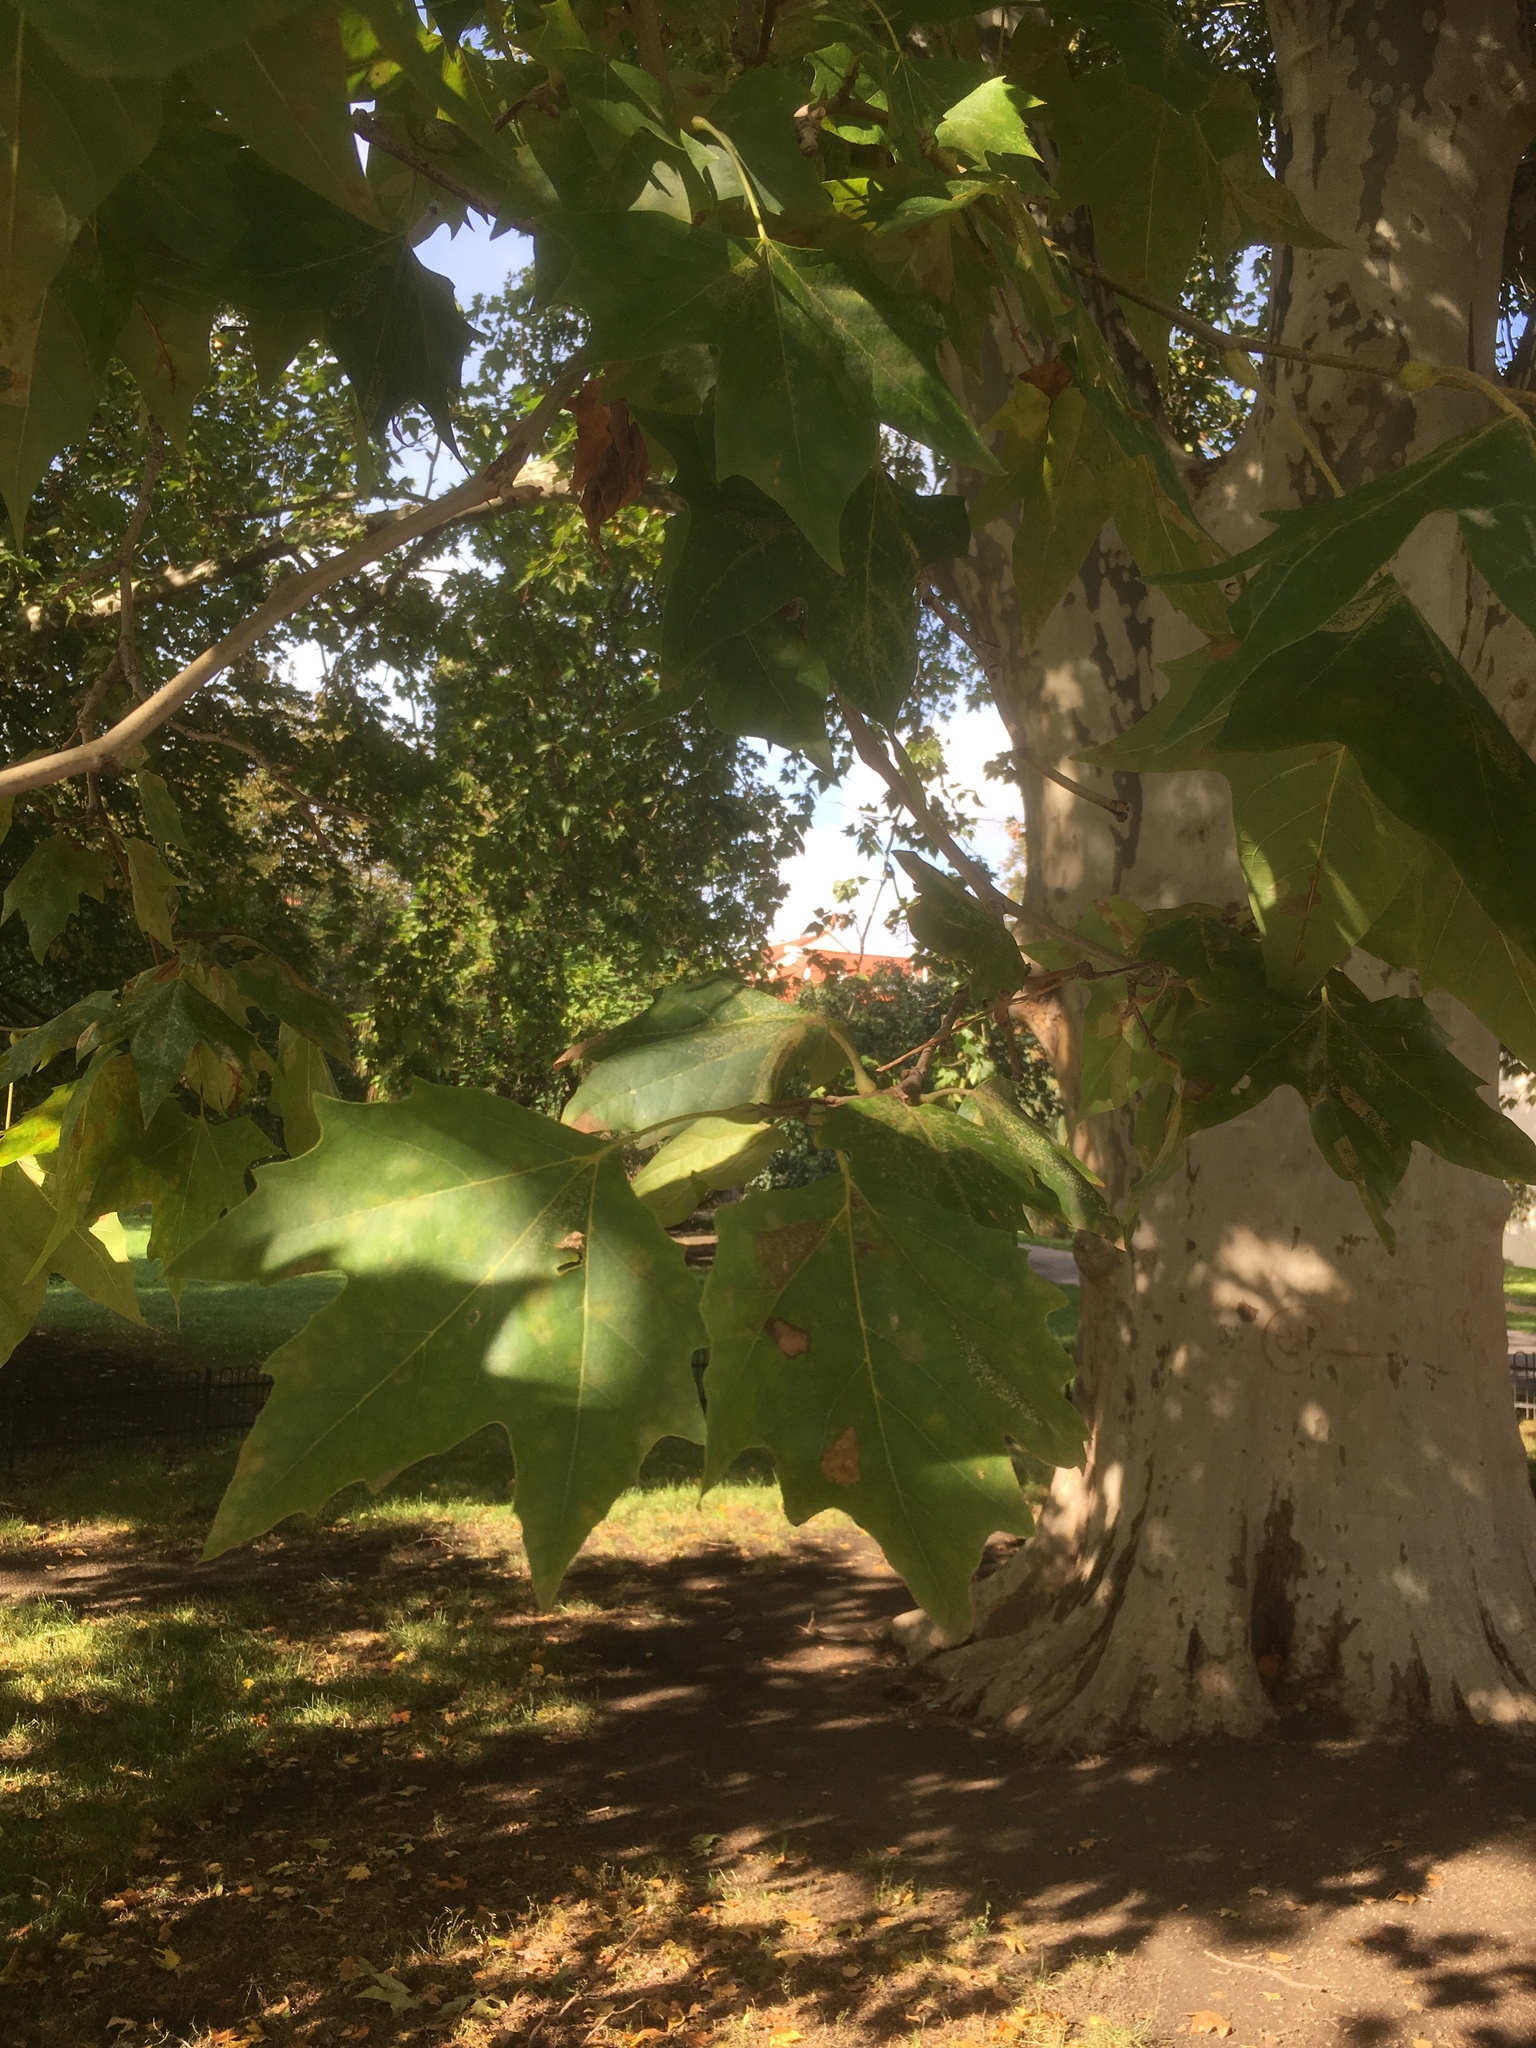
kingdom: Plantae
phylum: Tracheophyta
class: Magnoliopsida
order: Proteales
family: Platanaceae
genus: Platanus
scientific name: Platanus hispanica
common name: London plane
